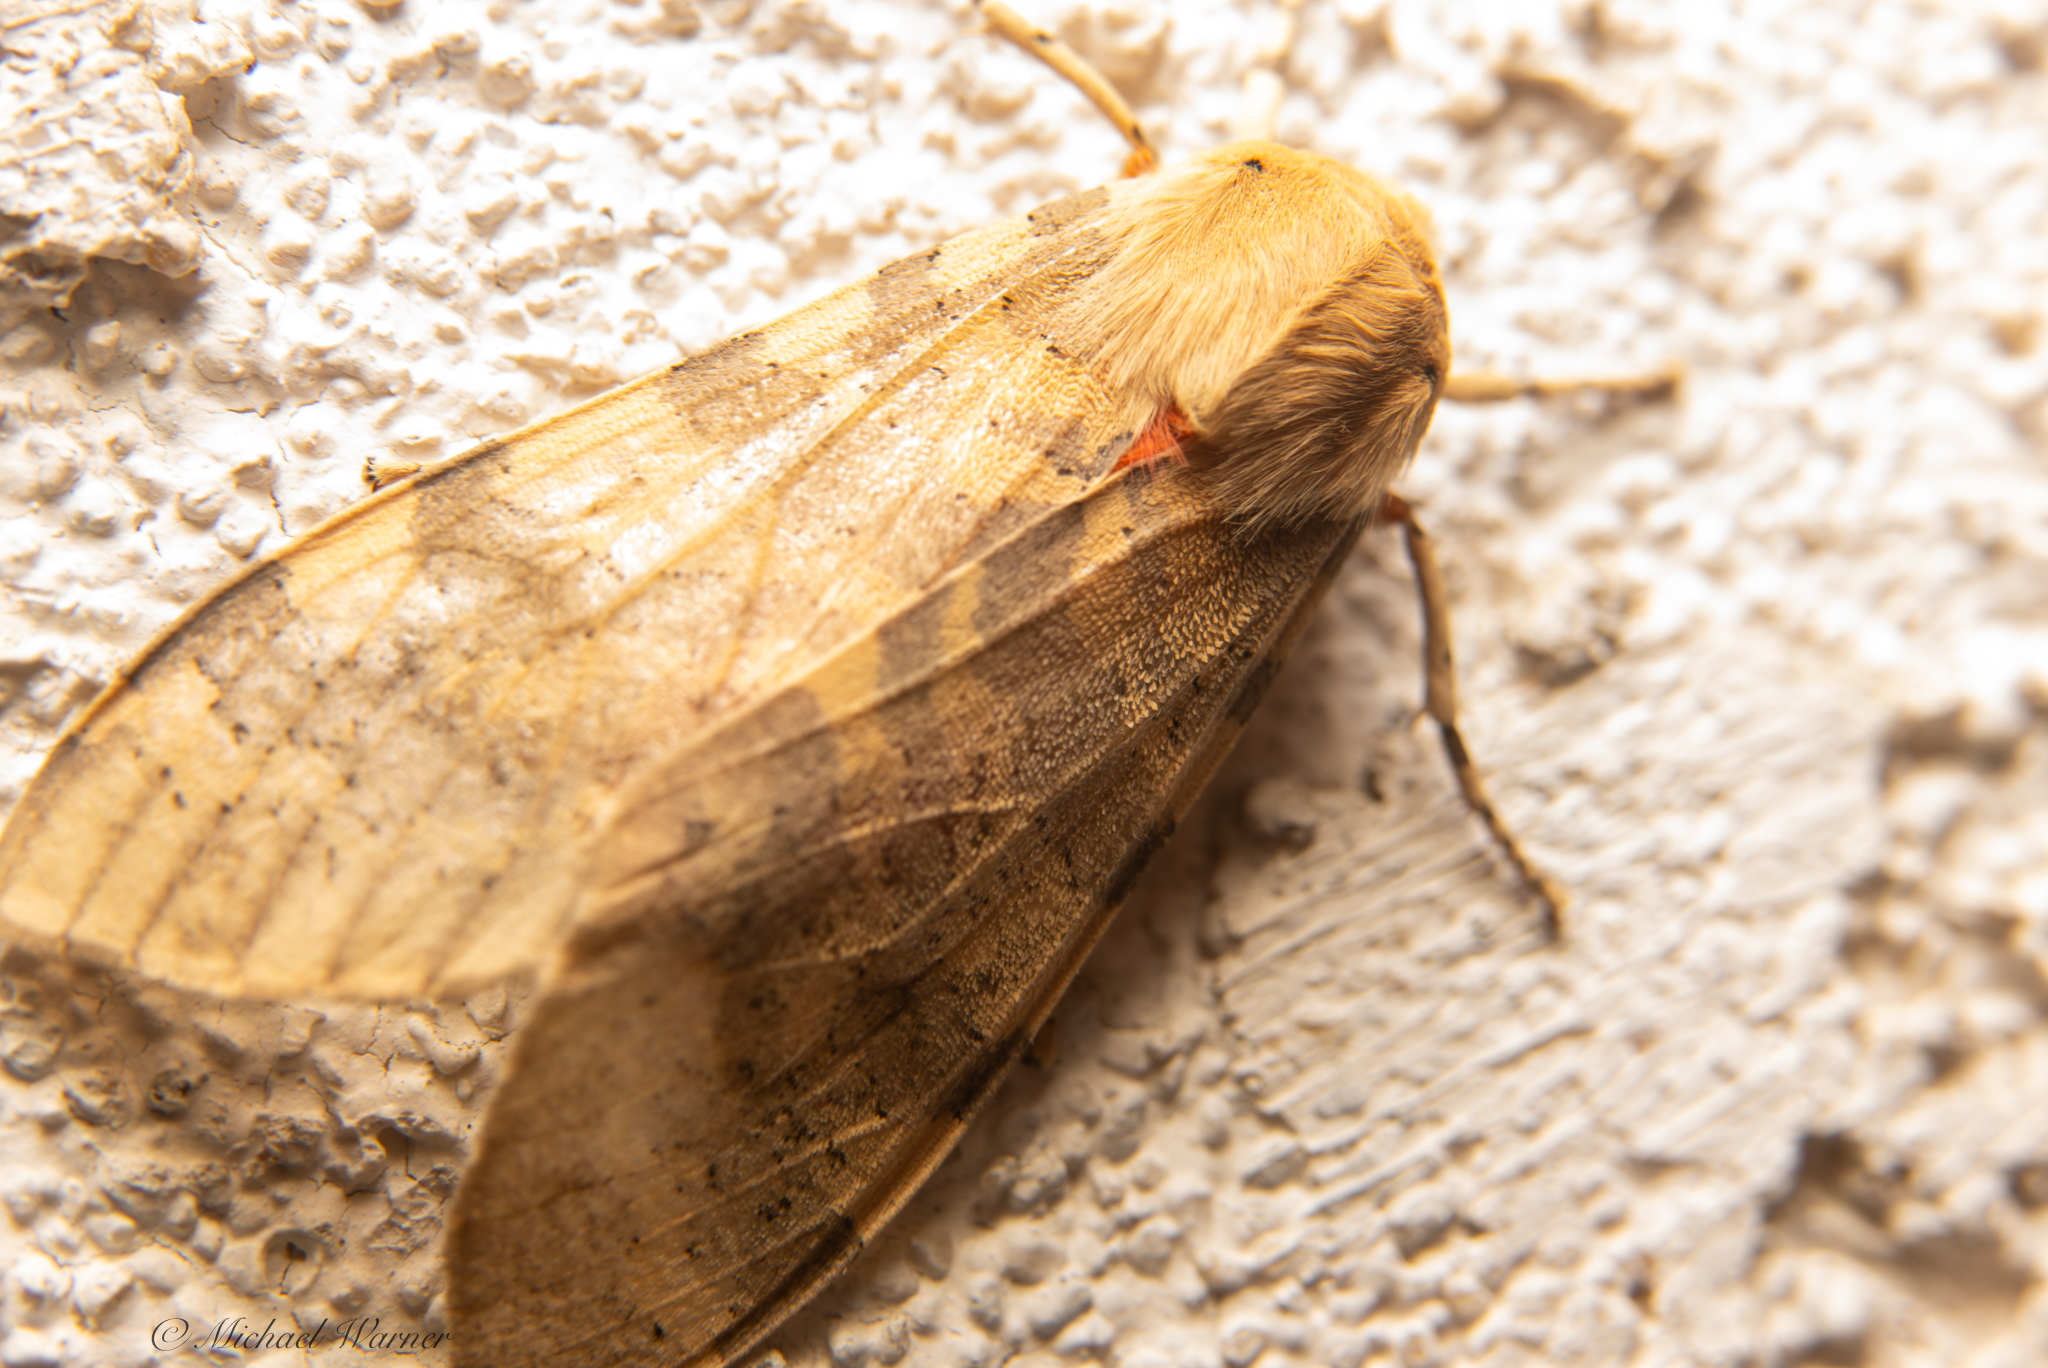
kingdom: Animalia
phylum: Arthropoda
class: Insecta
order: Lepidoptera
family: Erebidae
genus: Hemihyalea
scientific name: Hemihyalea edwardsii
